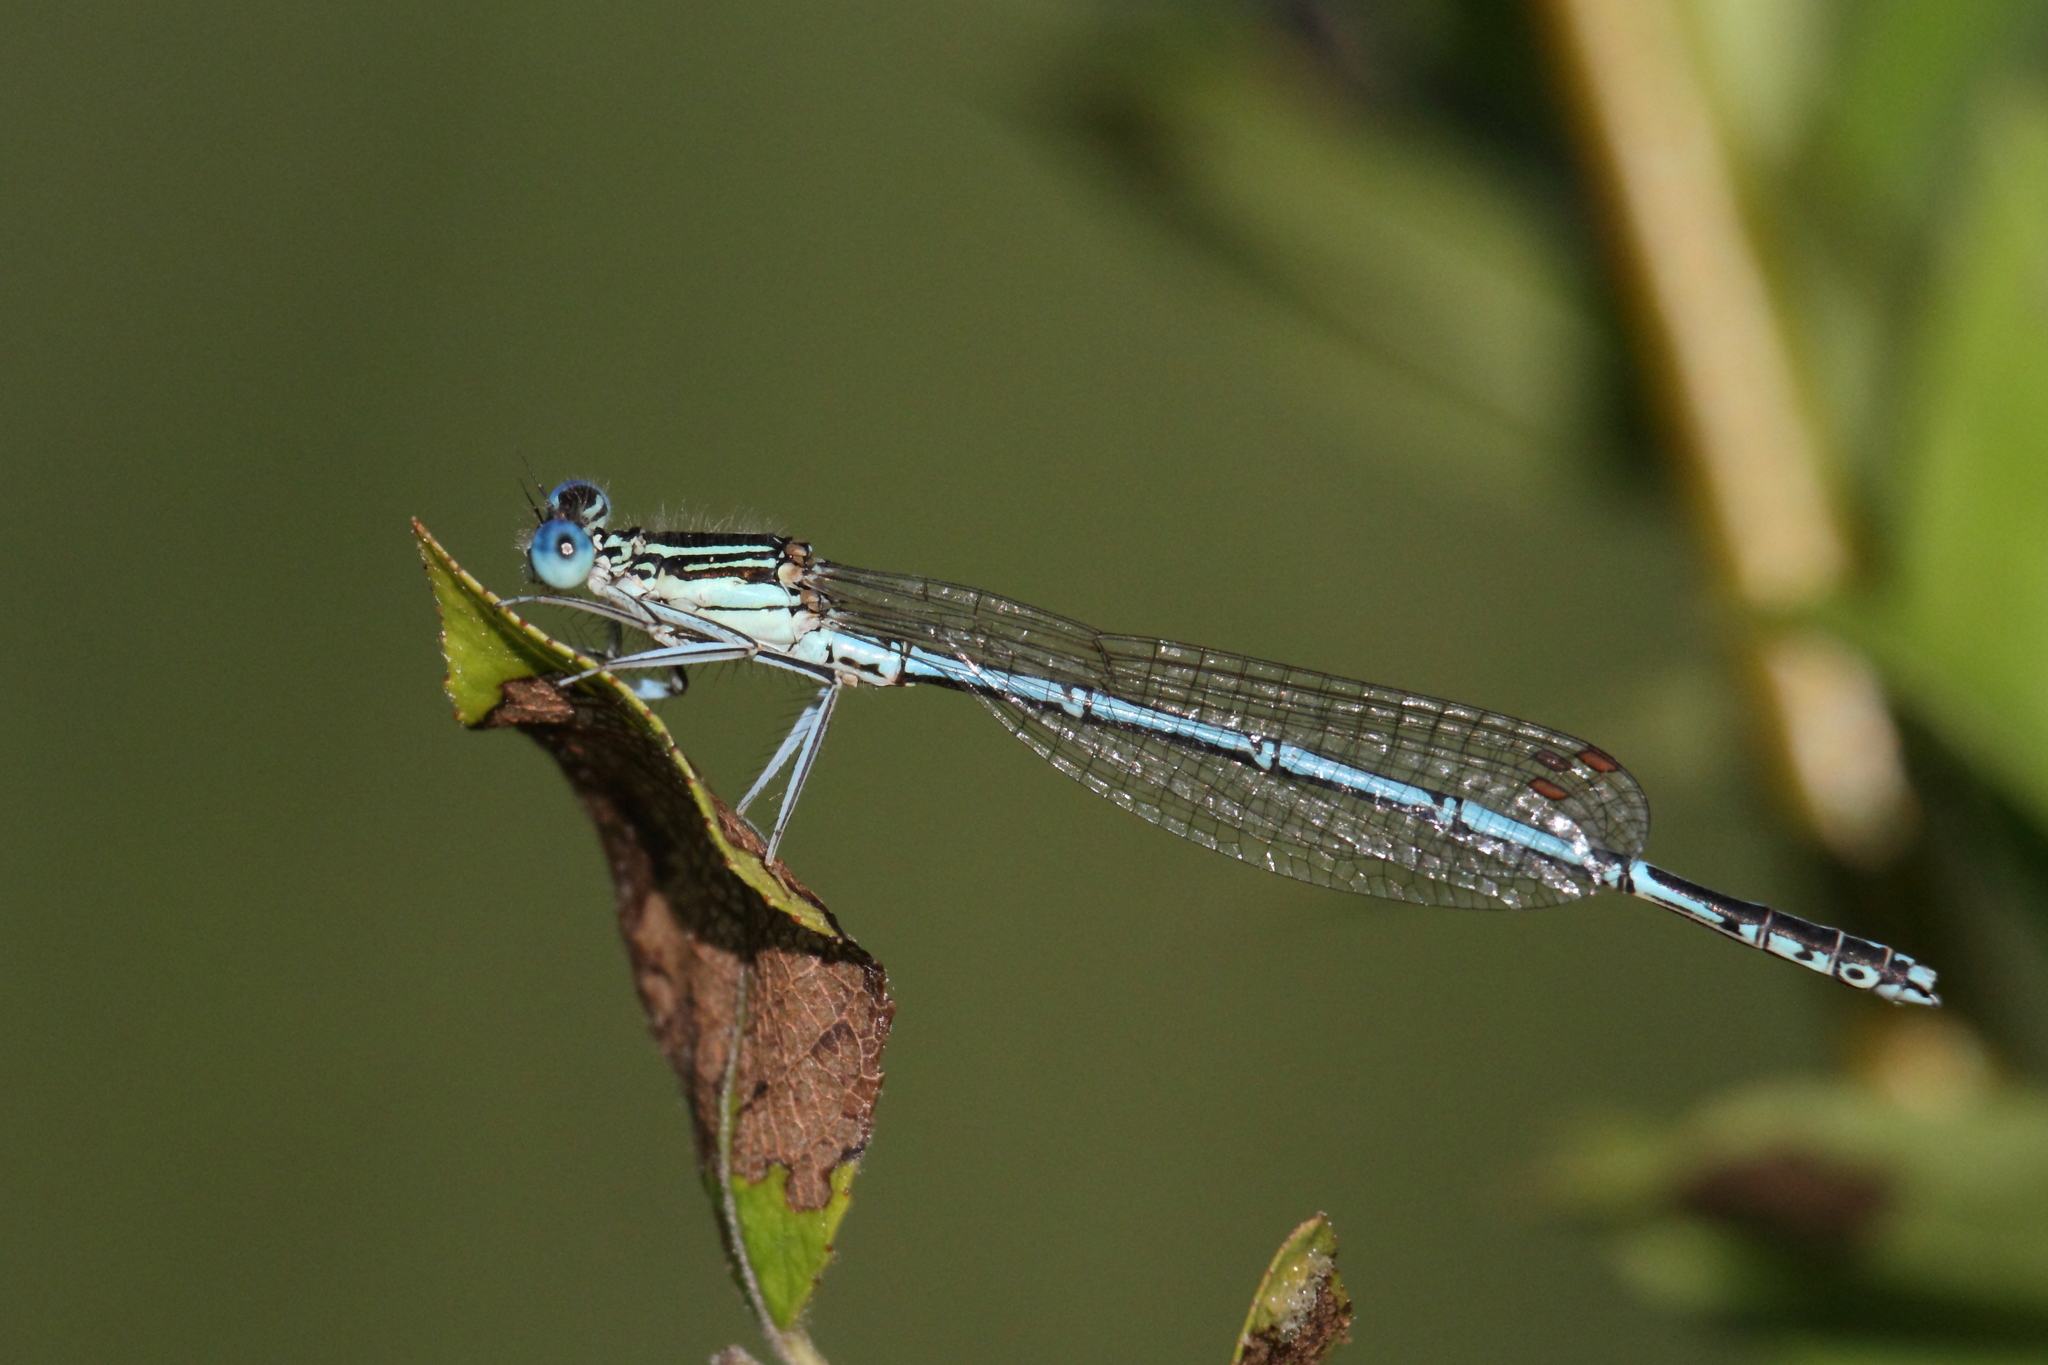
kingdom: Animalia
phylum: Arthropoda
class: Insecta
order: Odonata
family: Platycnemididae
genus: Platycnemis
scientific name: Platycnemis pennipes
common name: White-legged damselfly
